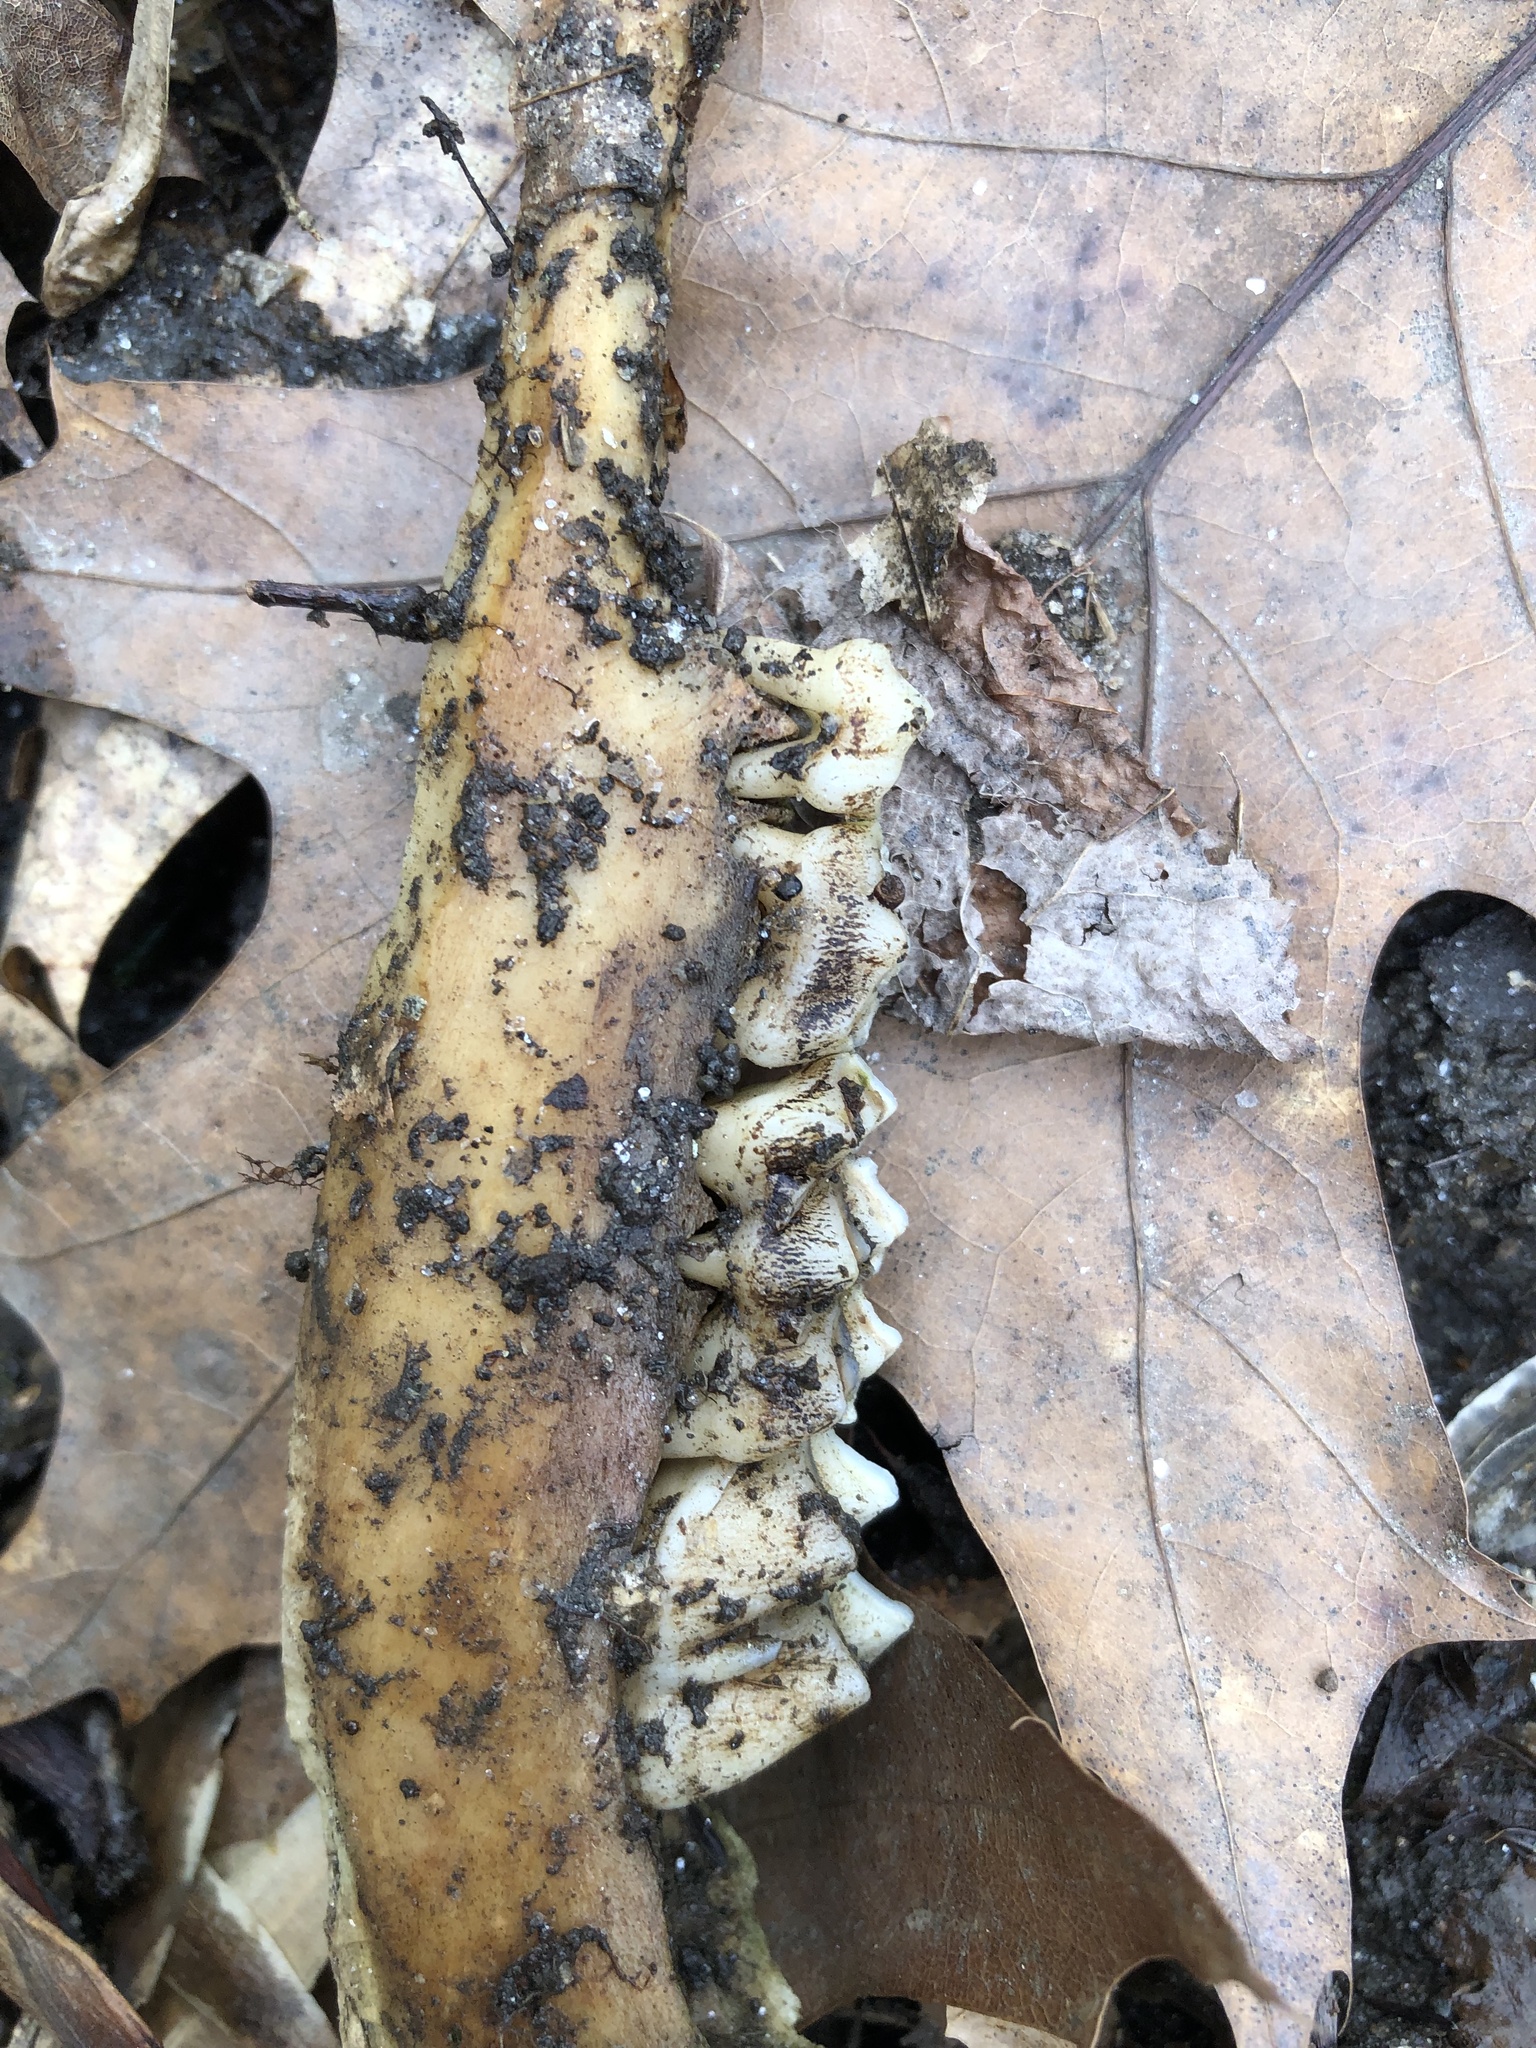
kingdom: Animalia
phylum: Chordata
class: Mammalia
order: Artiodactyla
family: Cervidae
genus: Odocoileus
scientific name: Odocoileus virginianus
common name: White-tailed deer
